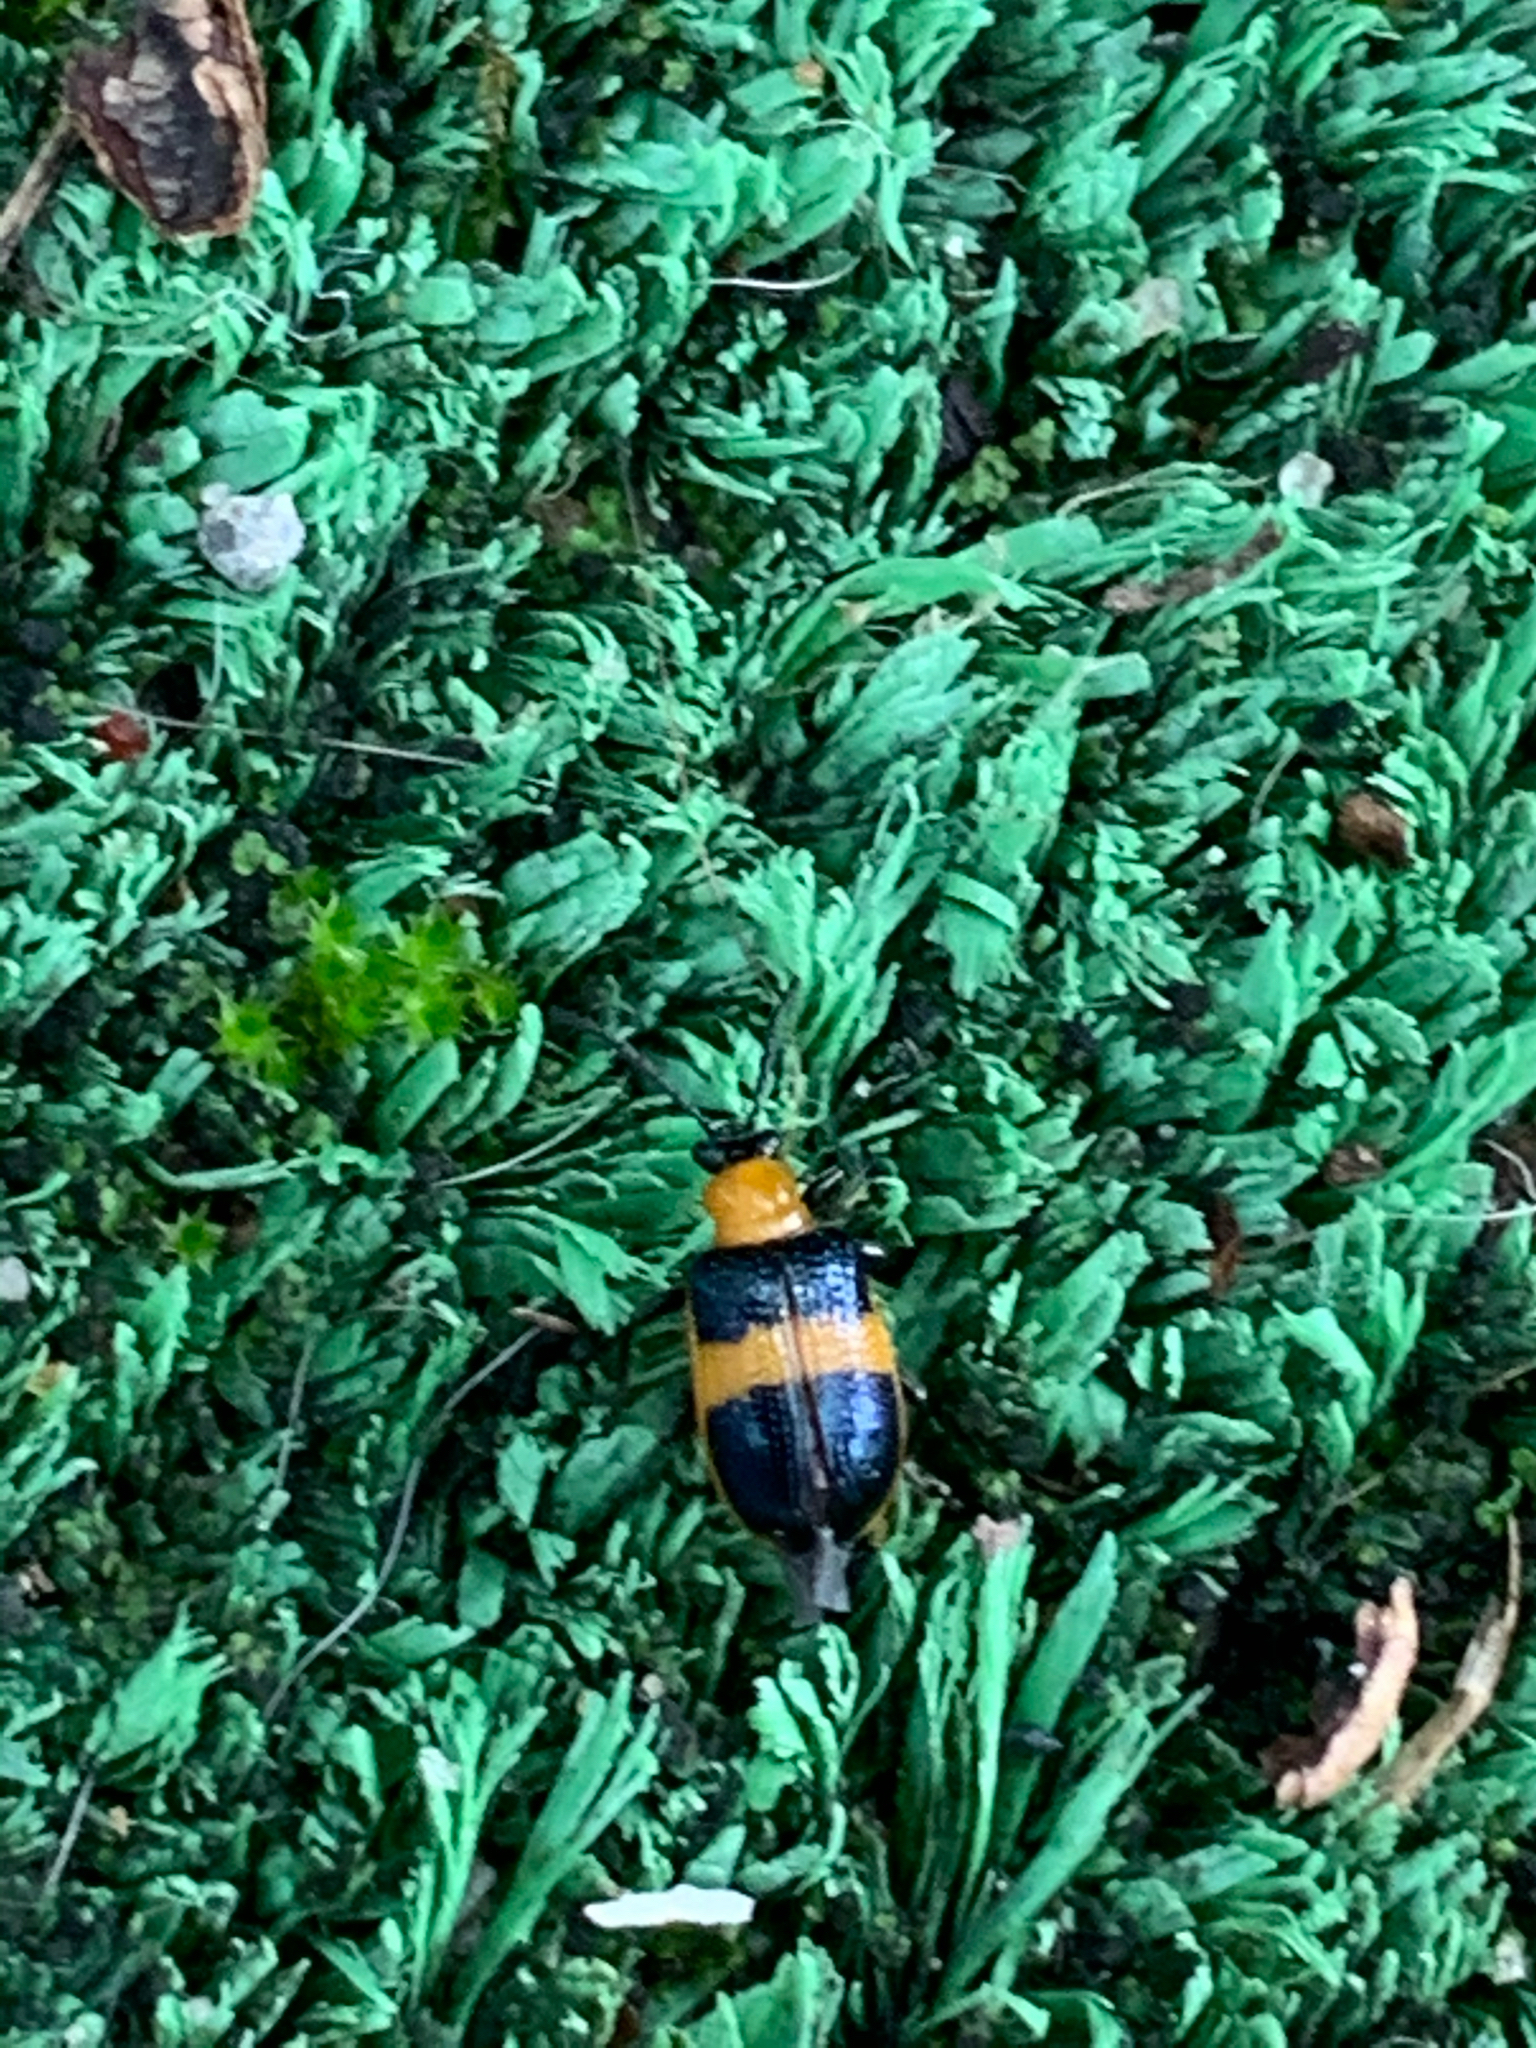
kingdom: Animalia
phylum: Arthropoda
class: Insecta
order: Coleoptera
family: Chrysomelidae
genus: Lema
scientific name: Lema solani
